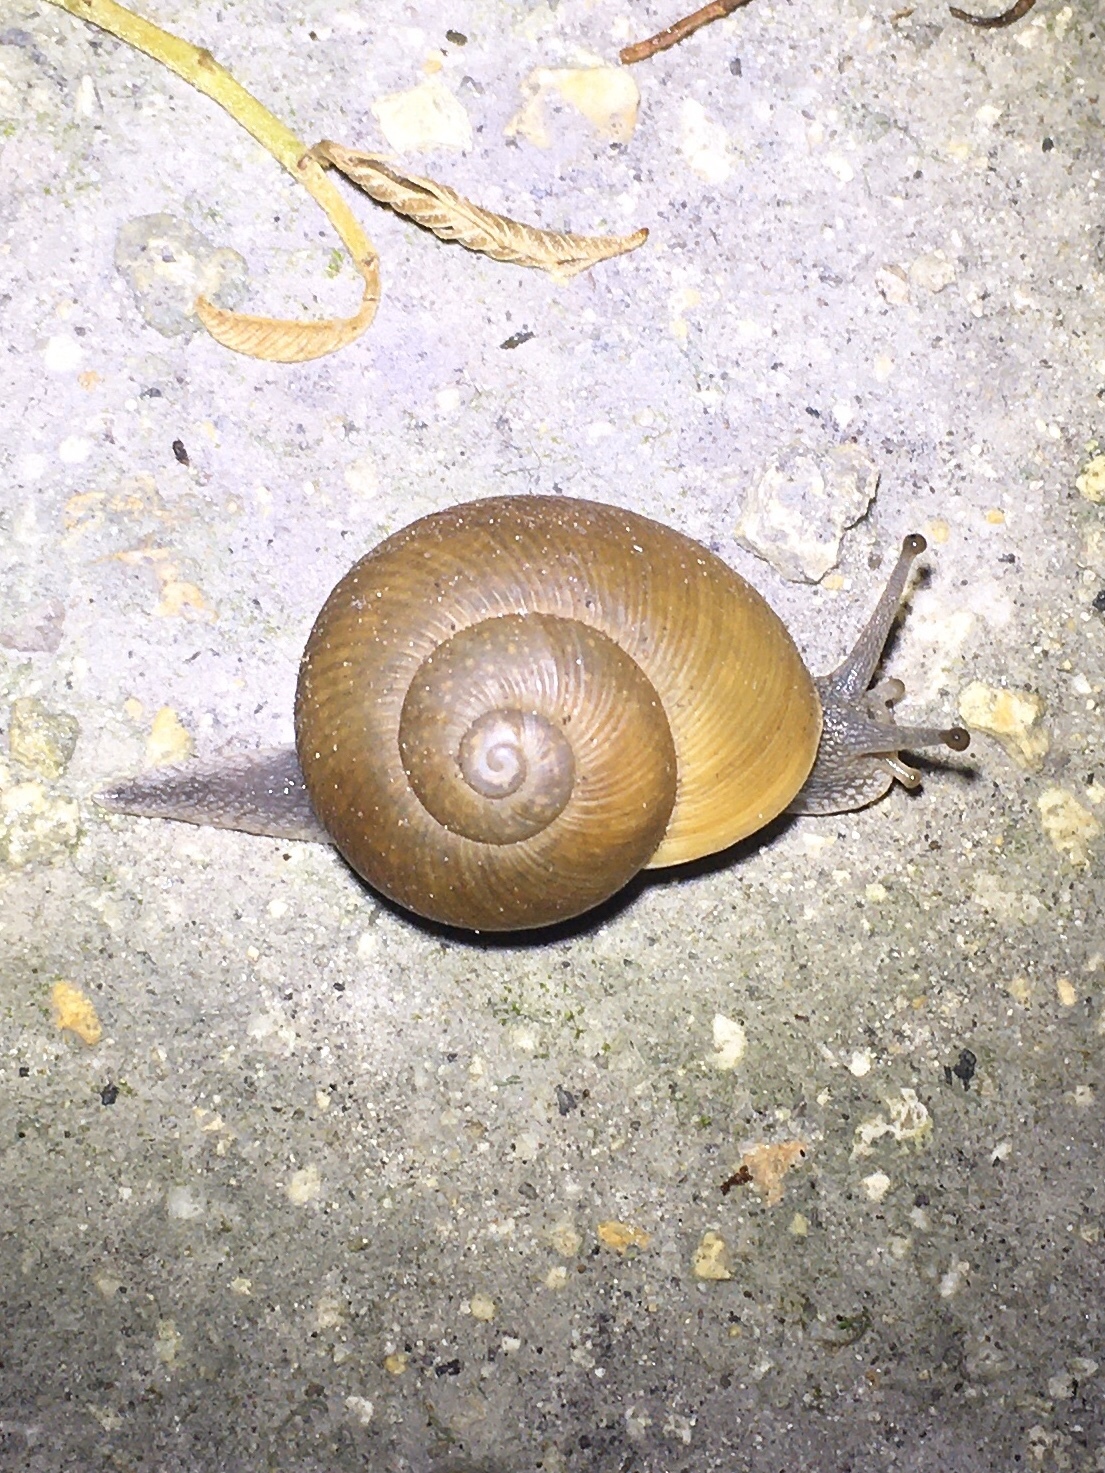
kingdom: Animalia
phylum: Mollusca
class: Gastropoda
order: Stylommatophora
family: Zachrysiidae
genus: Zachrysia
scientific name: Zachrysia provisoria
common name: Garden zachrysia
